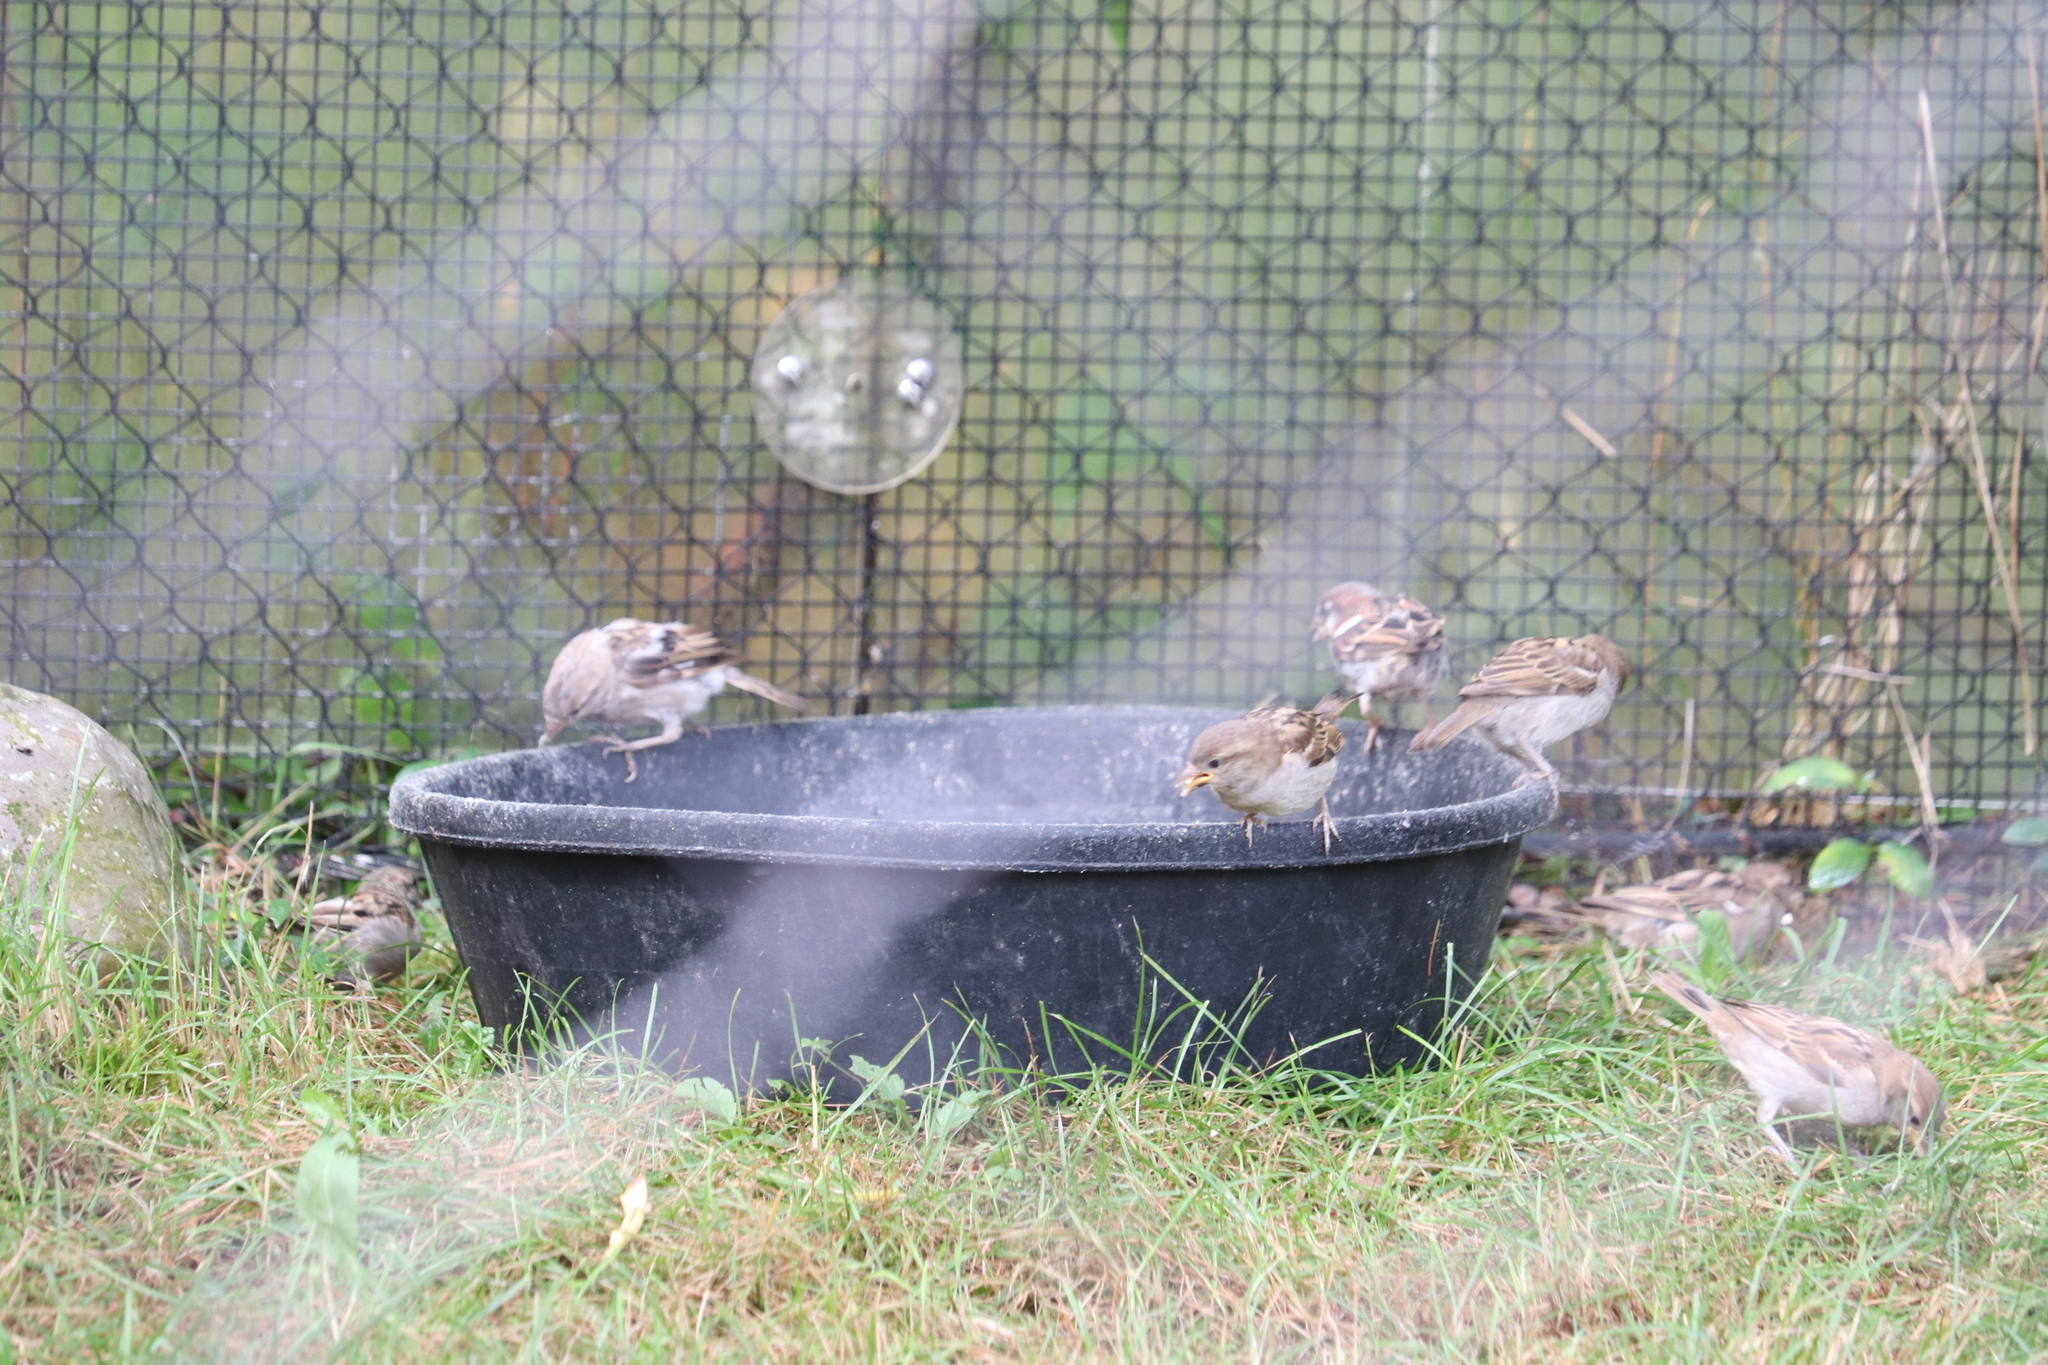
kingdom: Animalia
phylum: Chordata
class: Aves
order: Passeriformes
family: Passeridae
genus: Passer
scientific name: Passer domesticus
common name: House sparrow
